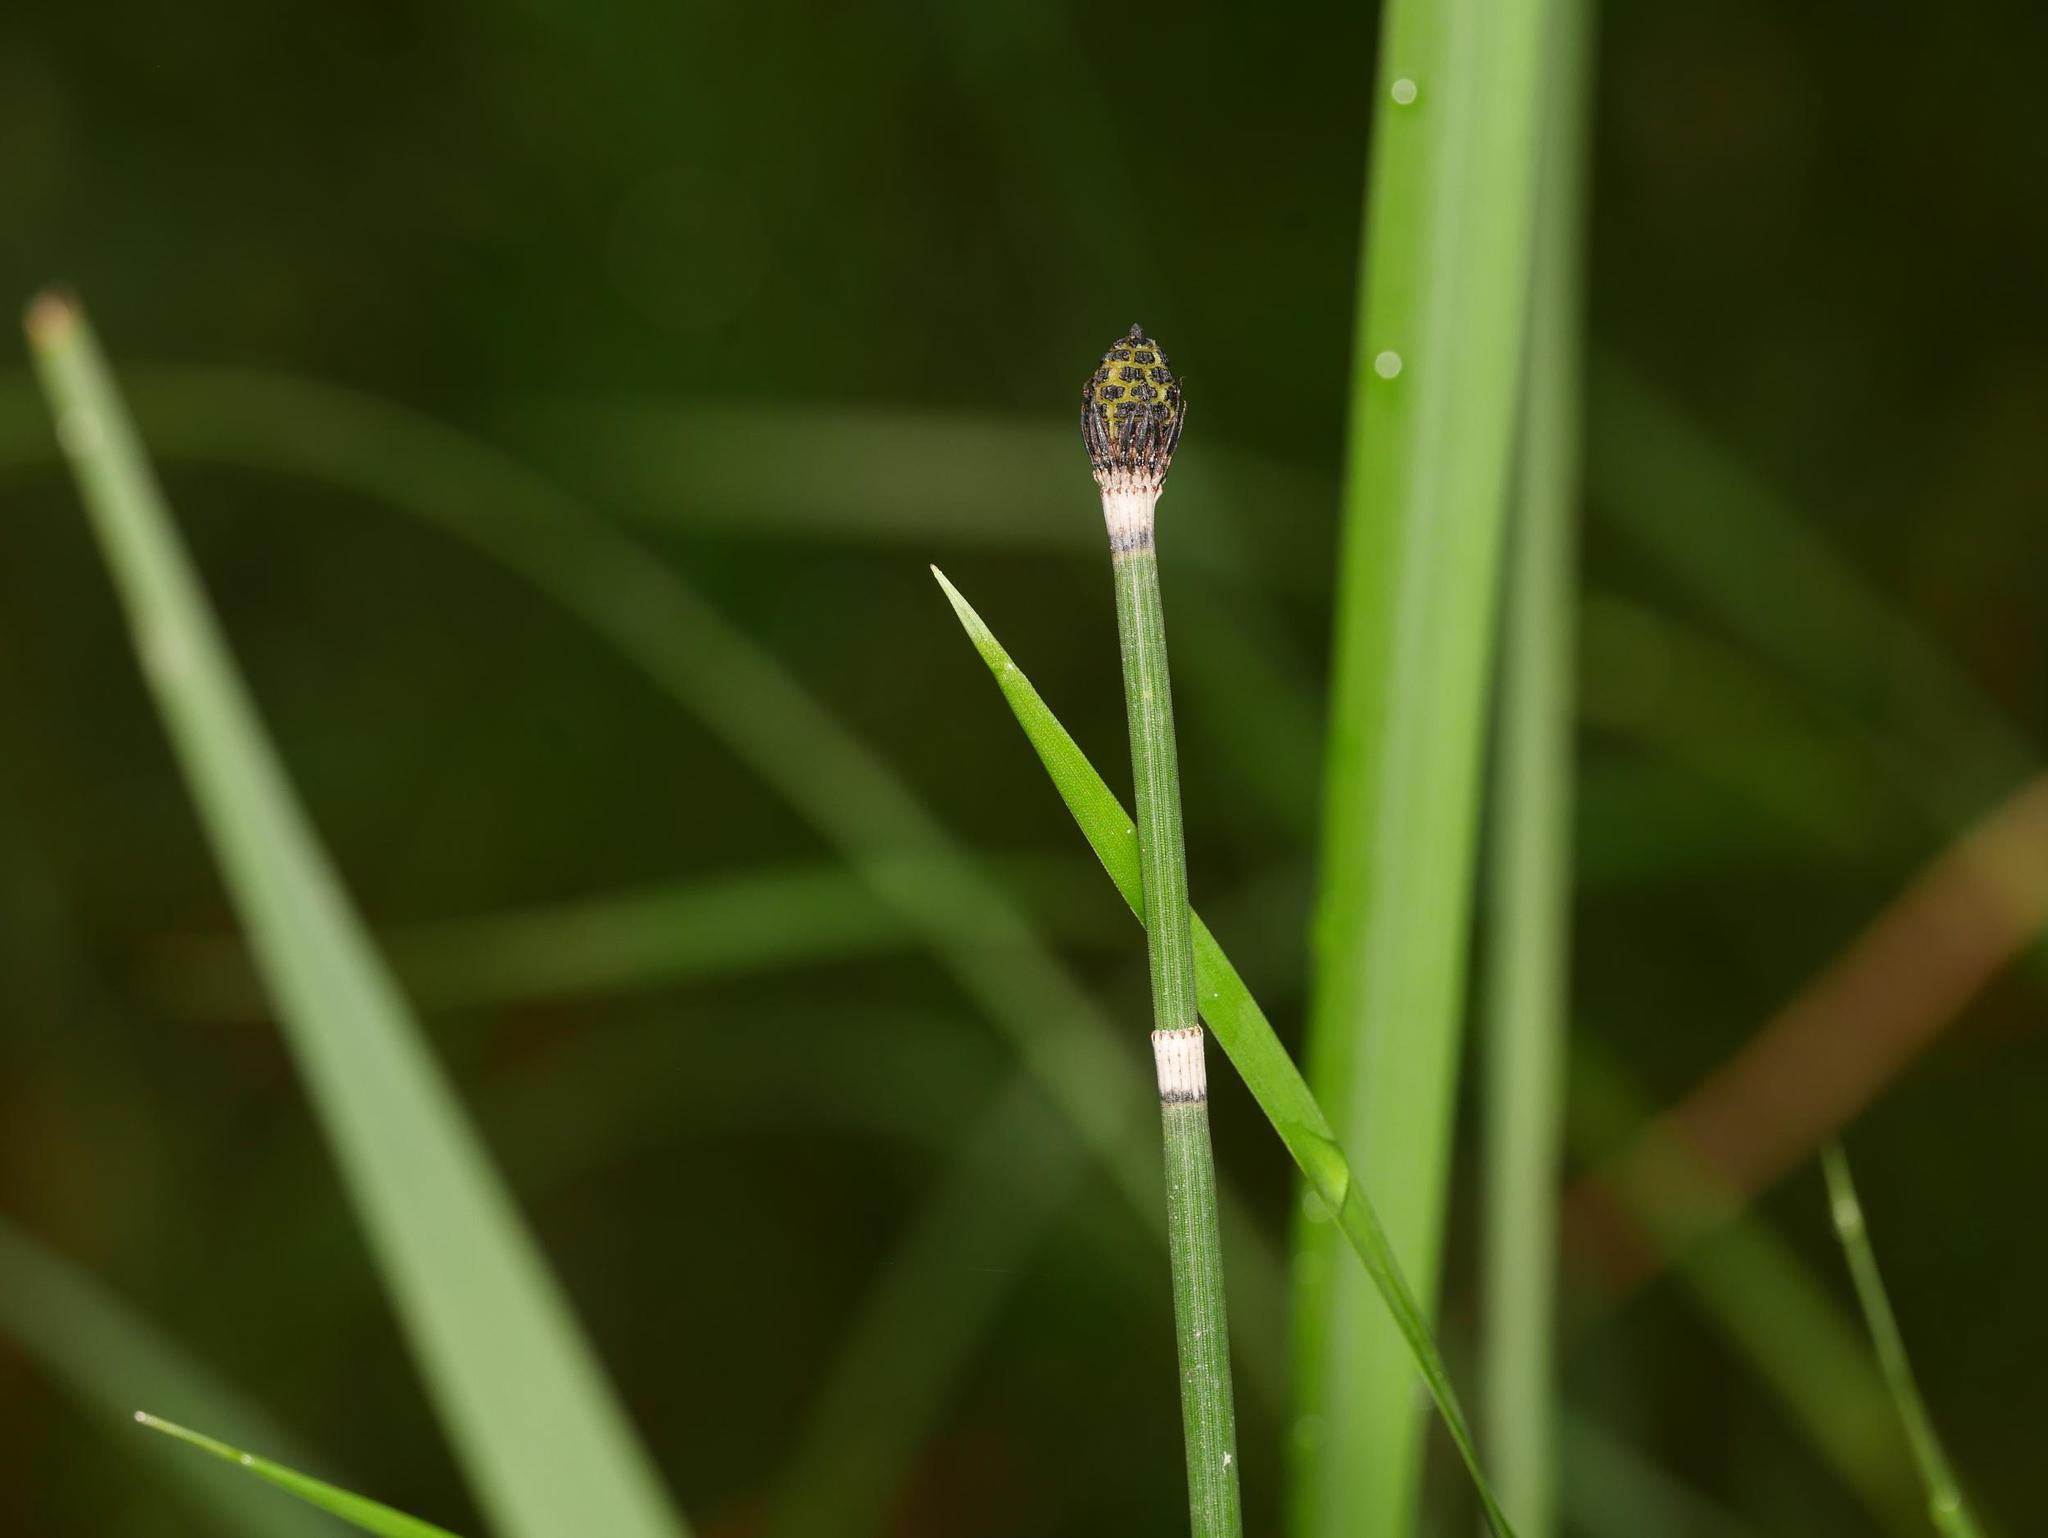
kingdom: Plantae
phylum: Tracheophyta
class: Polypodiopsida
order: Equisetales
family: Equisetaceae
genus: Equisetum
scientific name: Equisetum hyemale
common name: Rough horsetail
